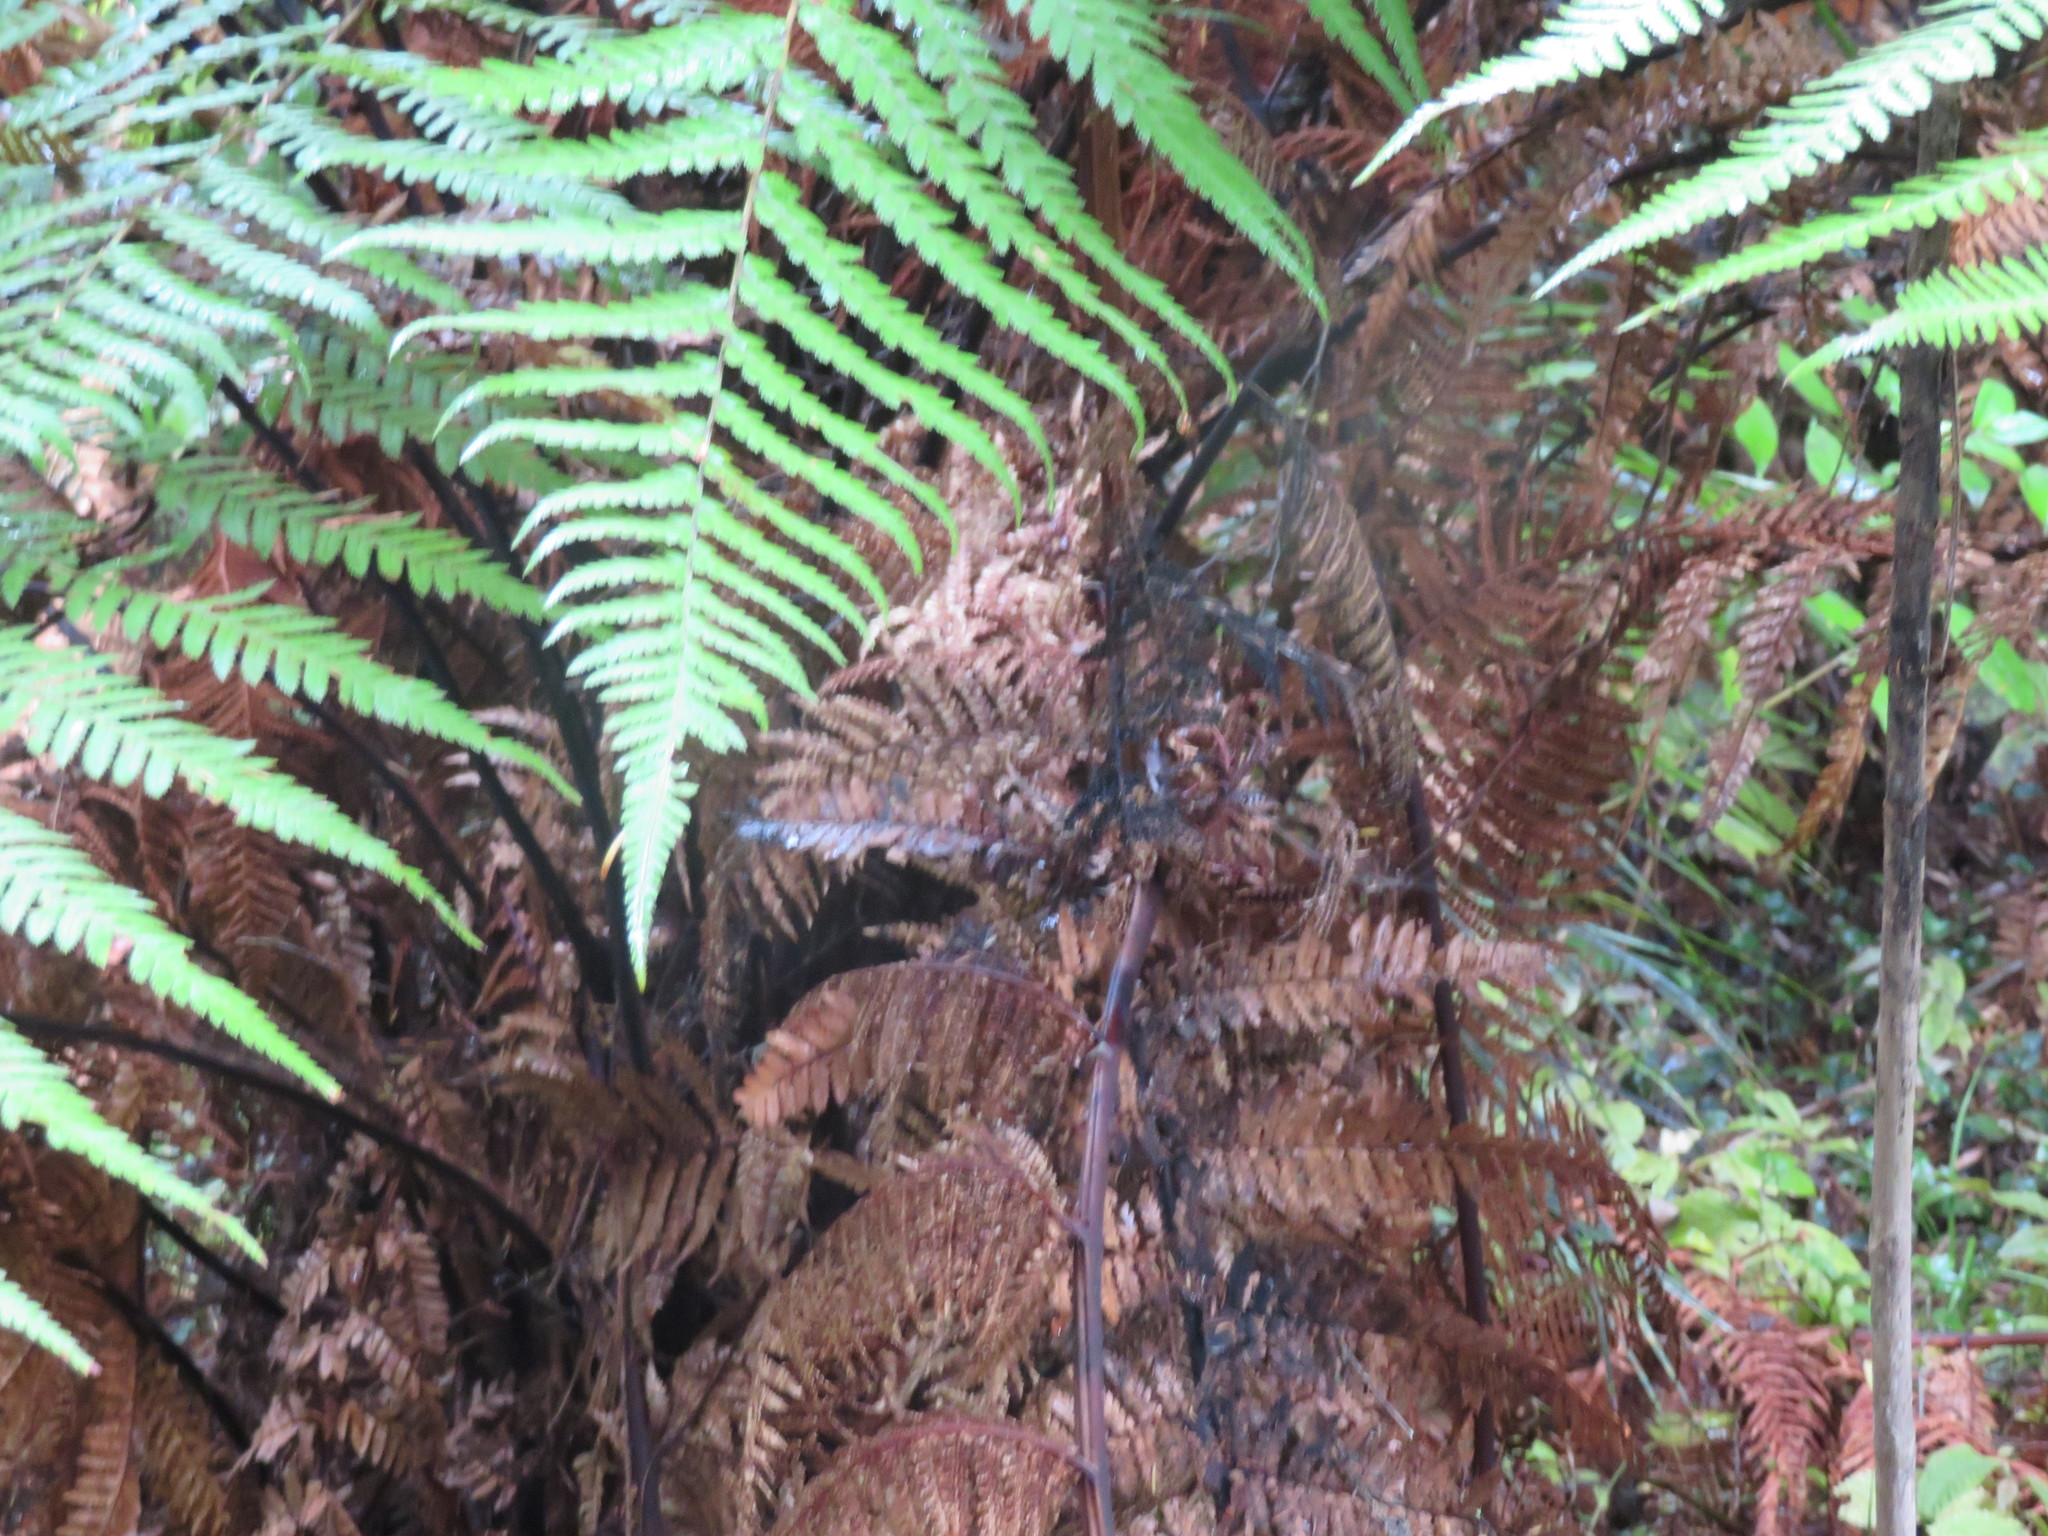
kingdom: Plantae
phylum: Tracheophyta
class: Polypodiopsida
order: Cyatheales
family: Dicksoniaceae
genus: Dicksonia
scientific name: Dicksonia squarrosa
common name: Hard treefern
